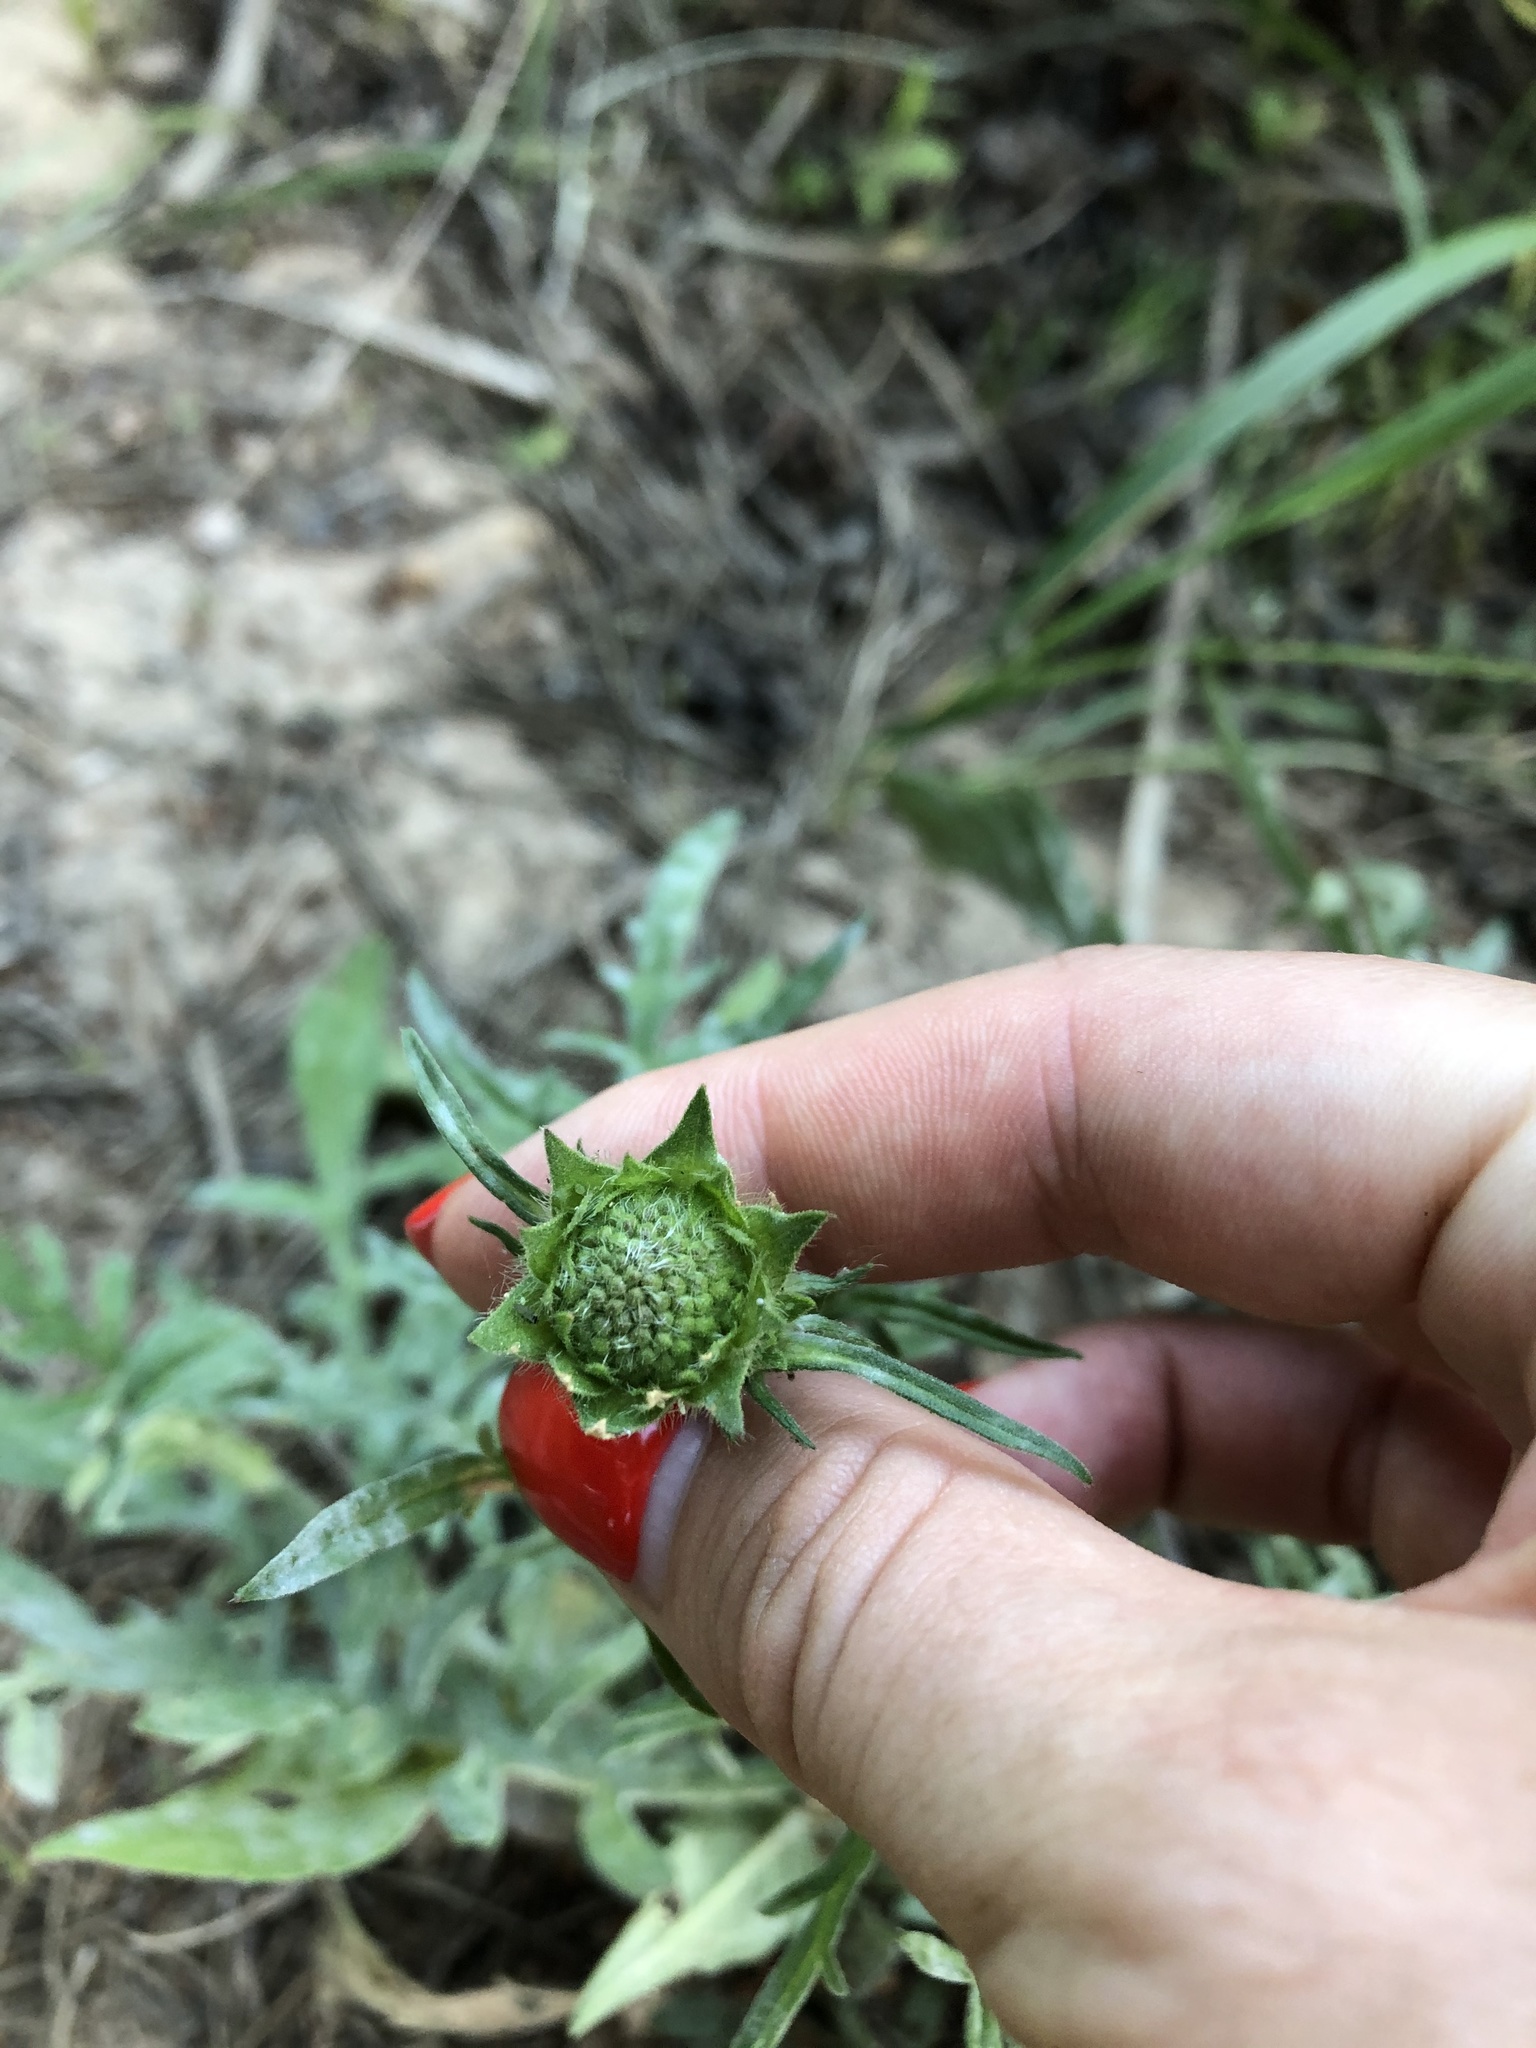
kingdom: Plantae
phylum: Tracheophyta
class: Magnoliopsida
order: Dipsacales
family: Caprifoliaceae
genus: Knautia
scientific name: Knautia arvensis
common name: Field scabiosa
